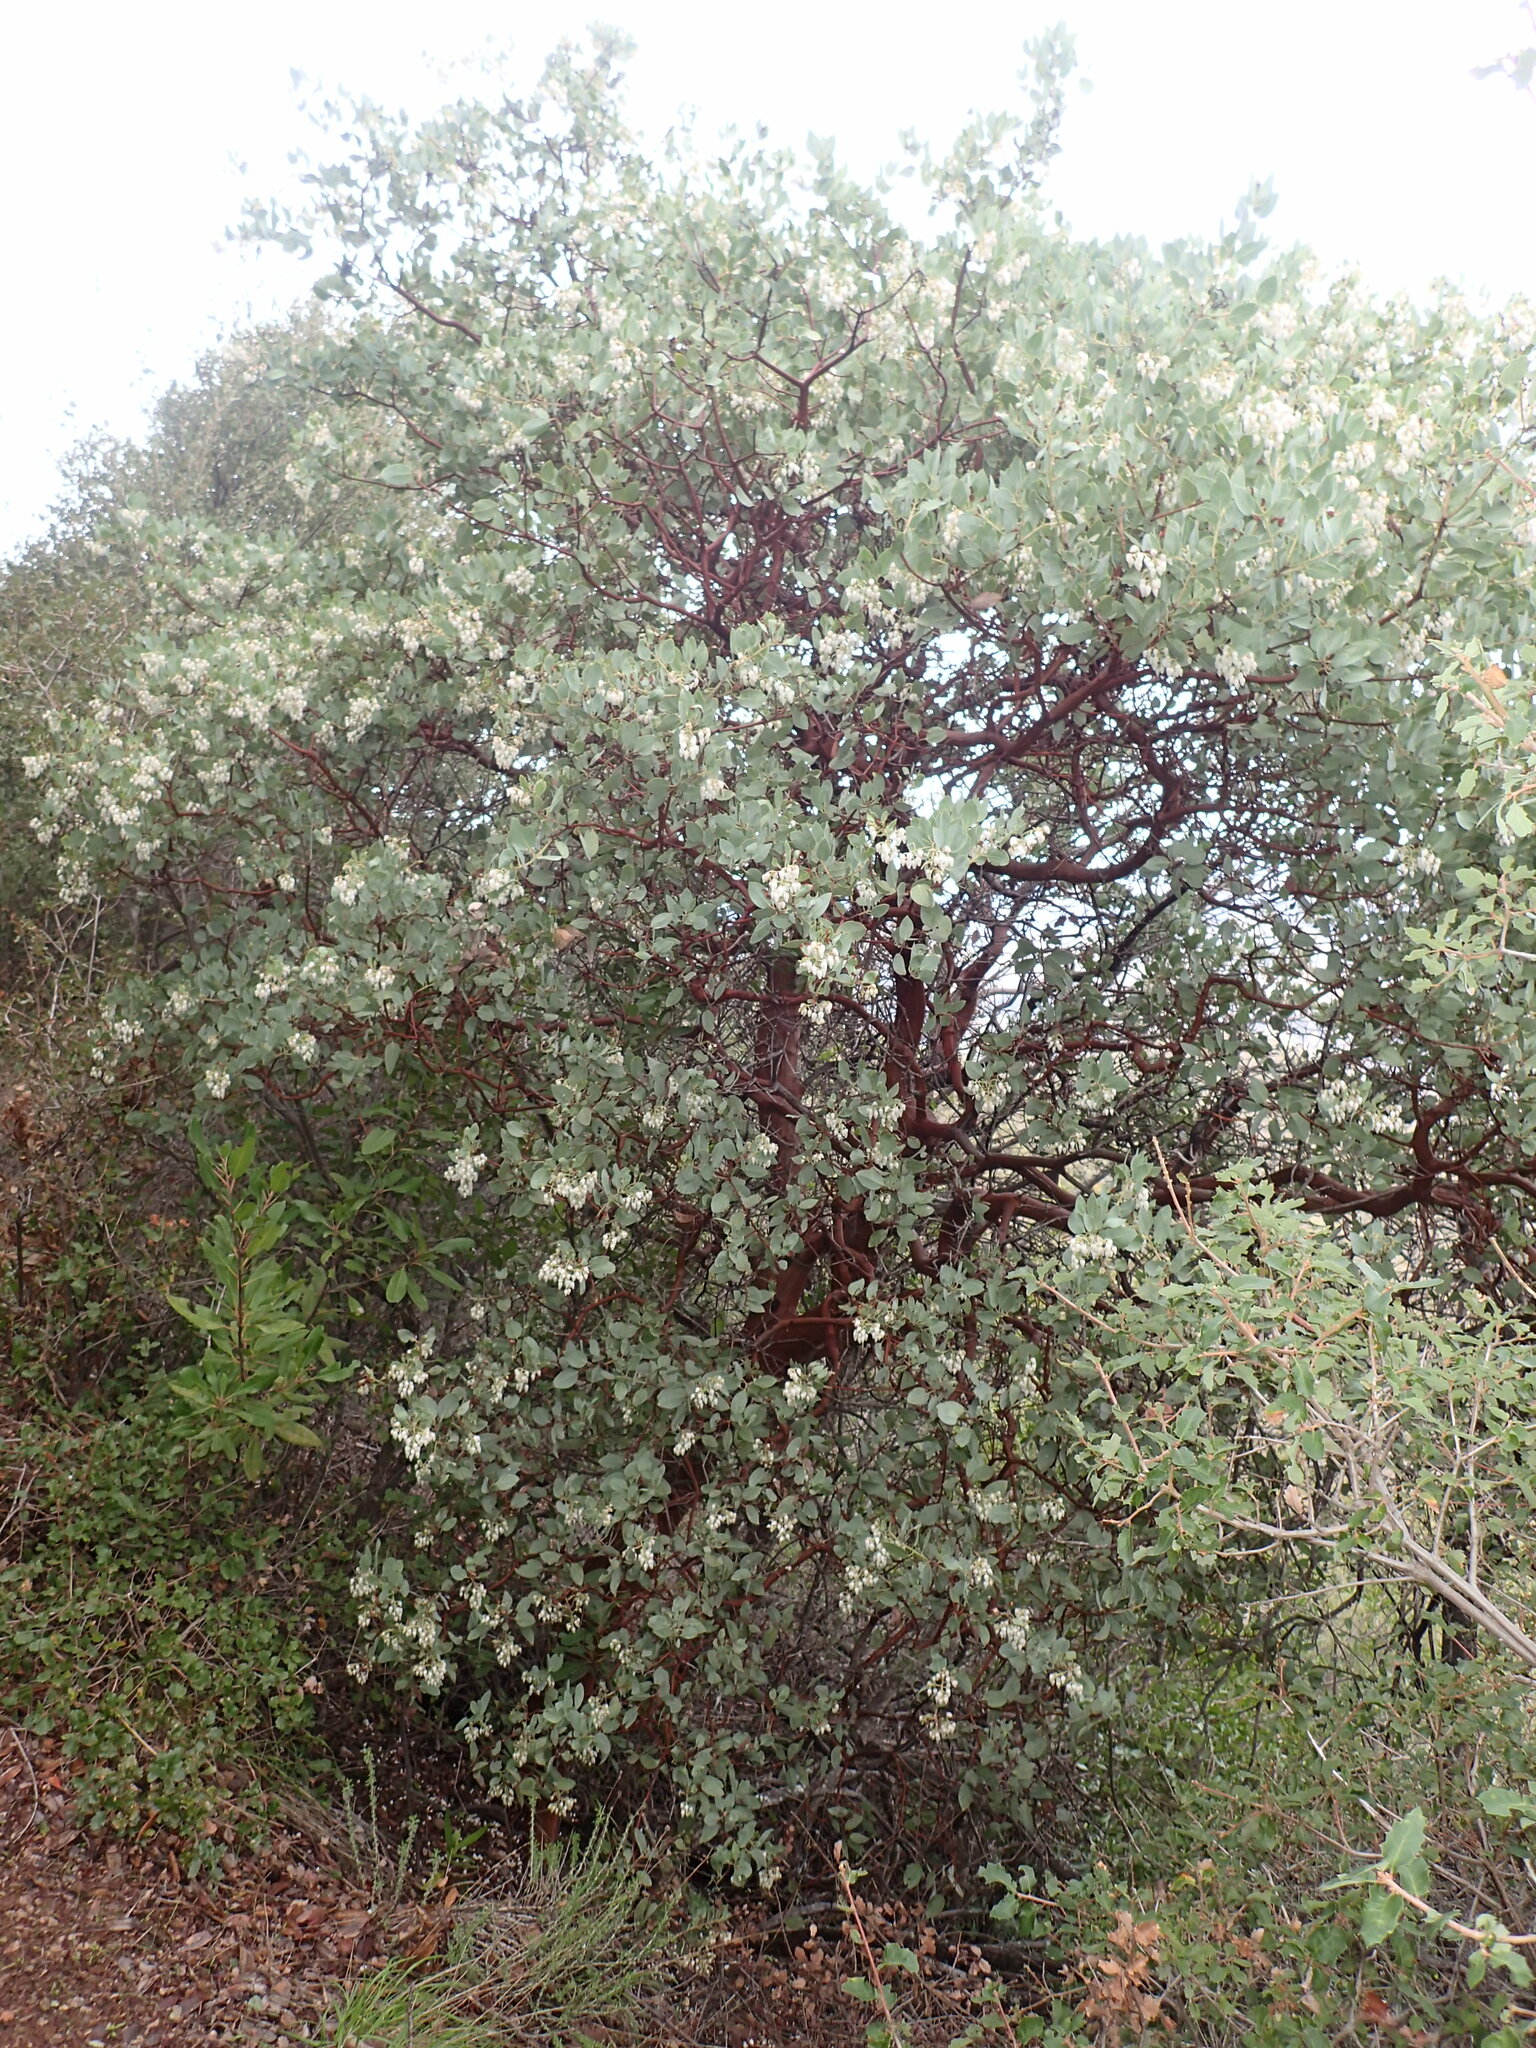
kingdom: Plantae
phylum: Tracheophyta
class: Magnoliopsida
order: Ericales
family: Ericaceae
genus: Arctostaphylos
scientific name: Arctostaphylos glauca
